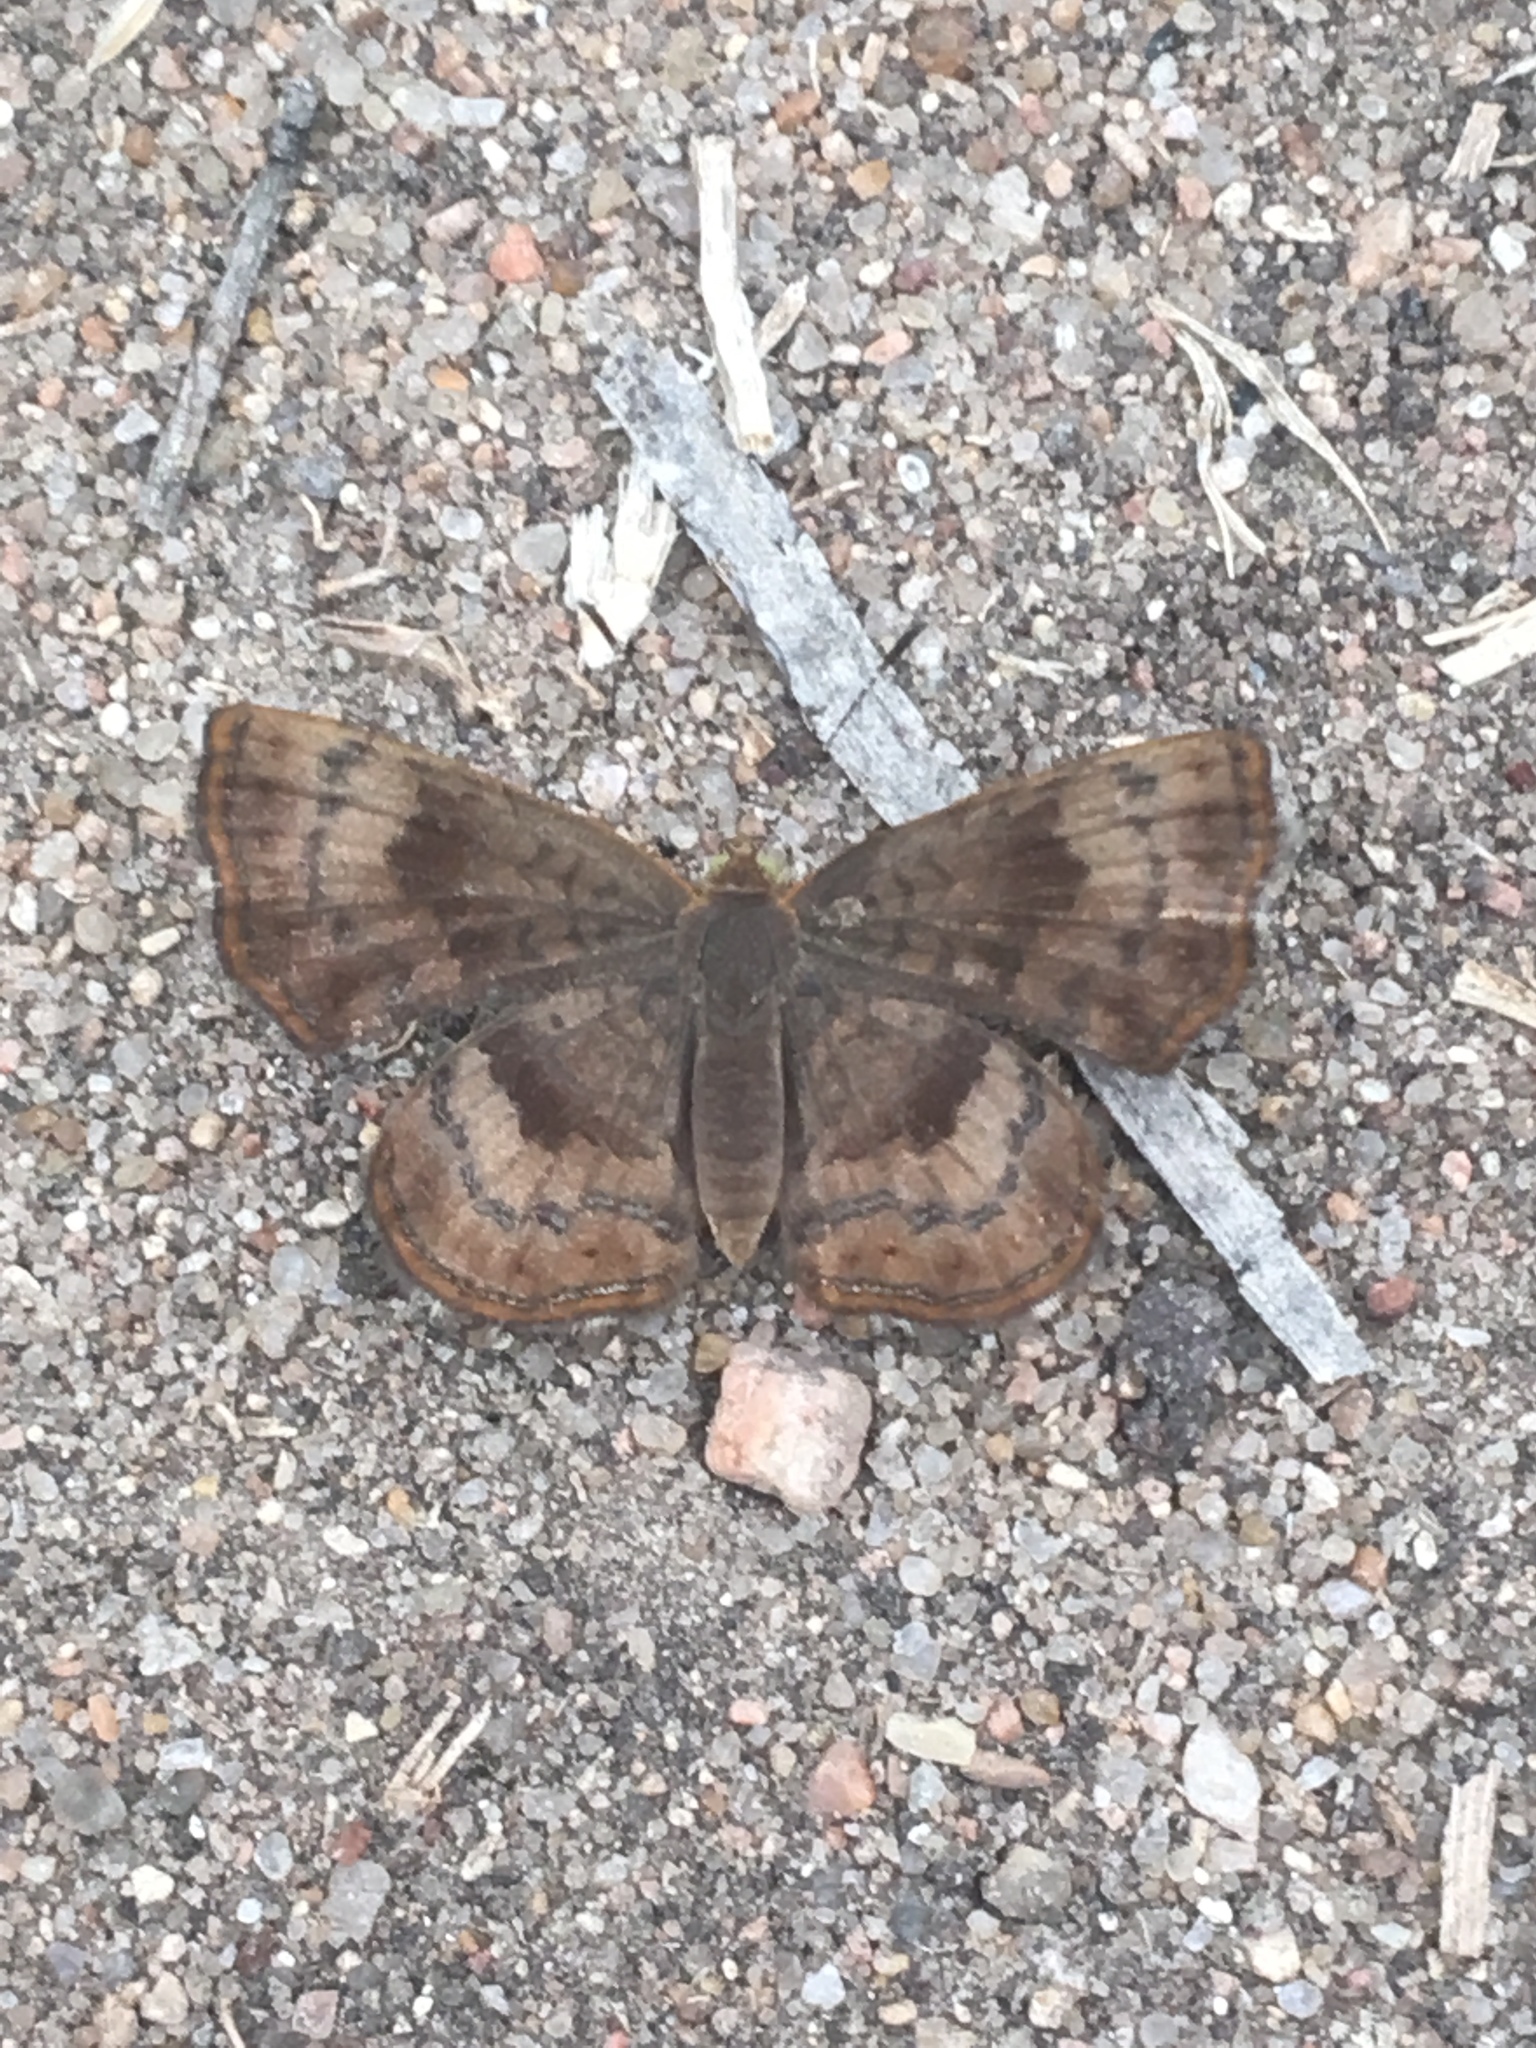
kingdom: Animalia
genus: Calephelis
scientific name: Calephelis nemesis
